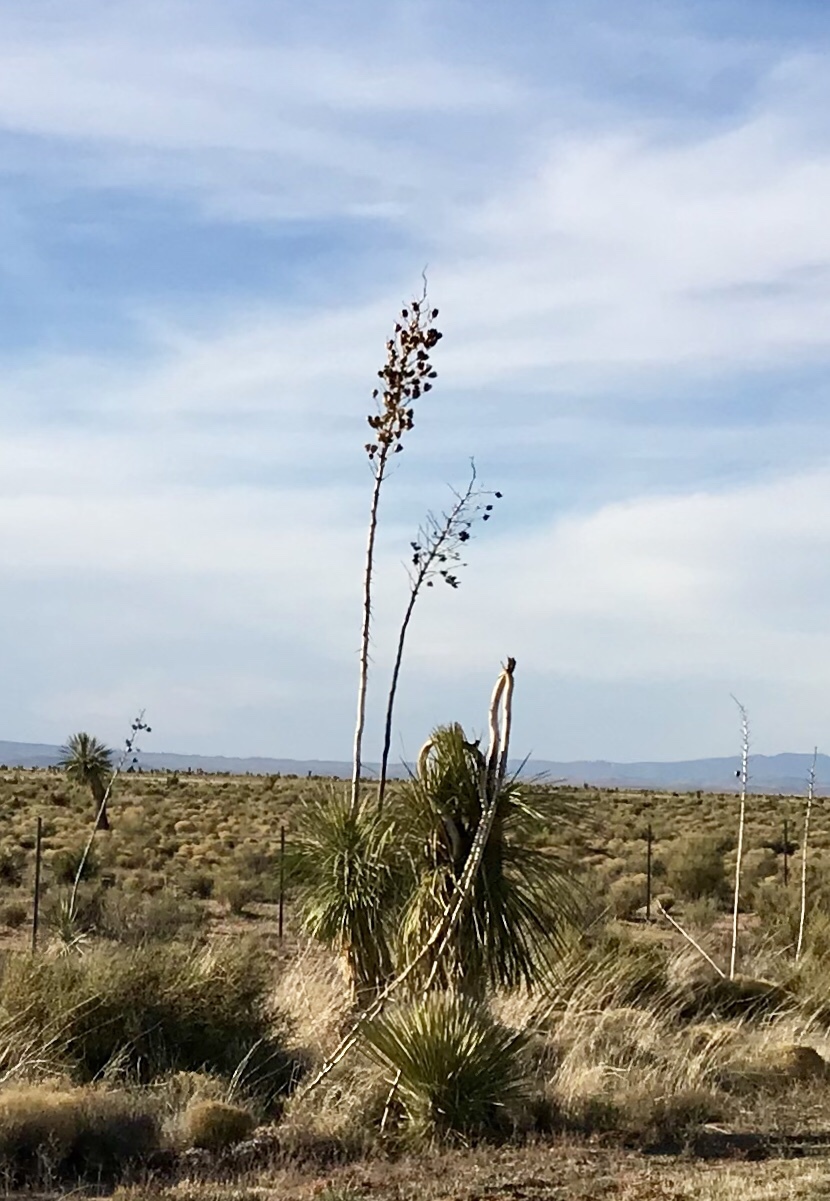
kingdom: Plantae
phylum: Tracheophyta
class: Liliopsida
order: Asparagales
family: Asparagaceae
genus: Yucca
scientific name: Yucca elata
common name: Palmella
